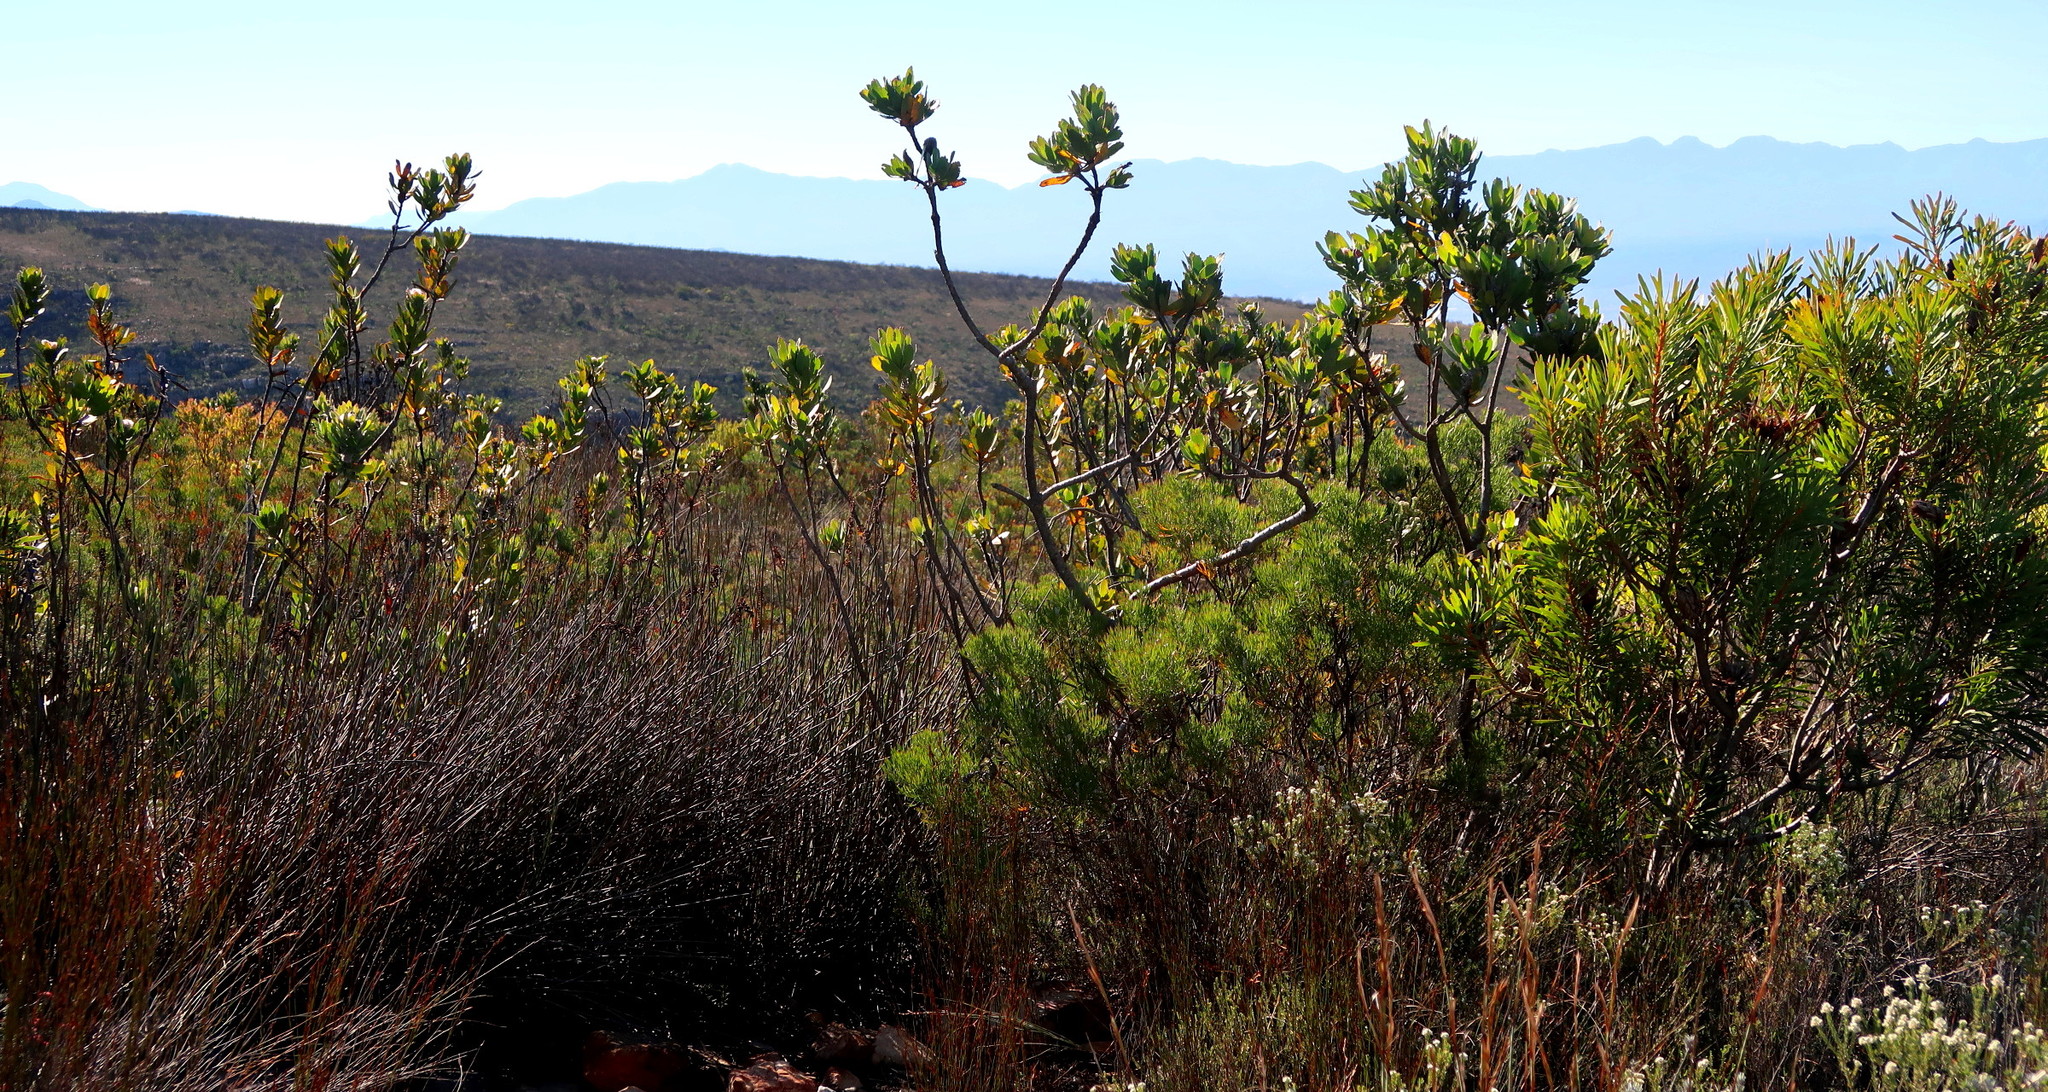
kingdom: Plantae
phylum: Tracheophyta
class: Magnoliopsida
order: Proteales
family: Proteaceae
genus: Leucospermum
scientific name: Leucospermum pluridens
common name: Robinson pincushion
